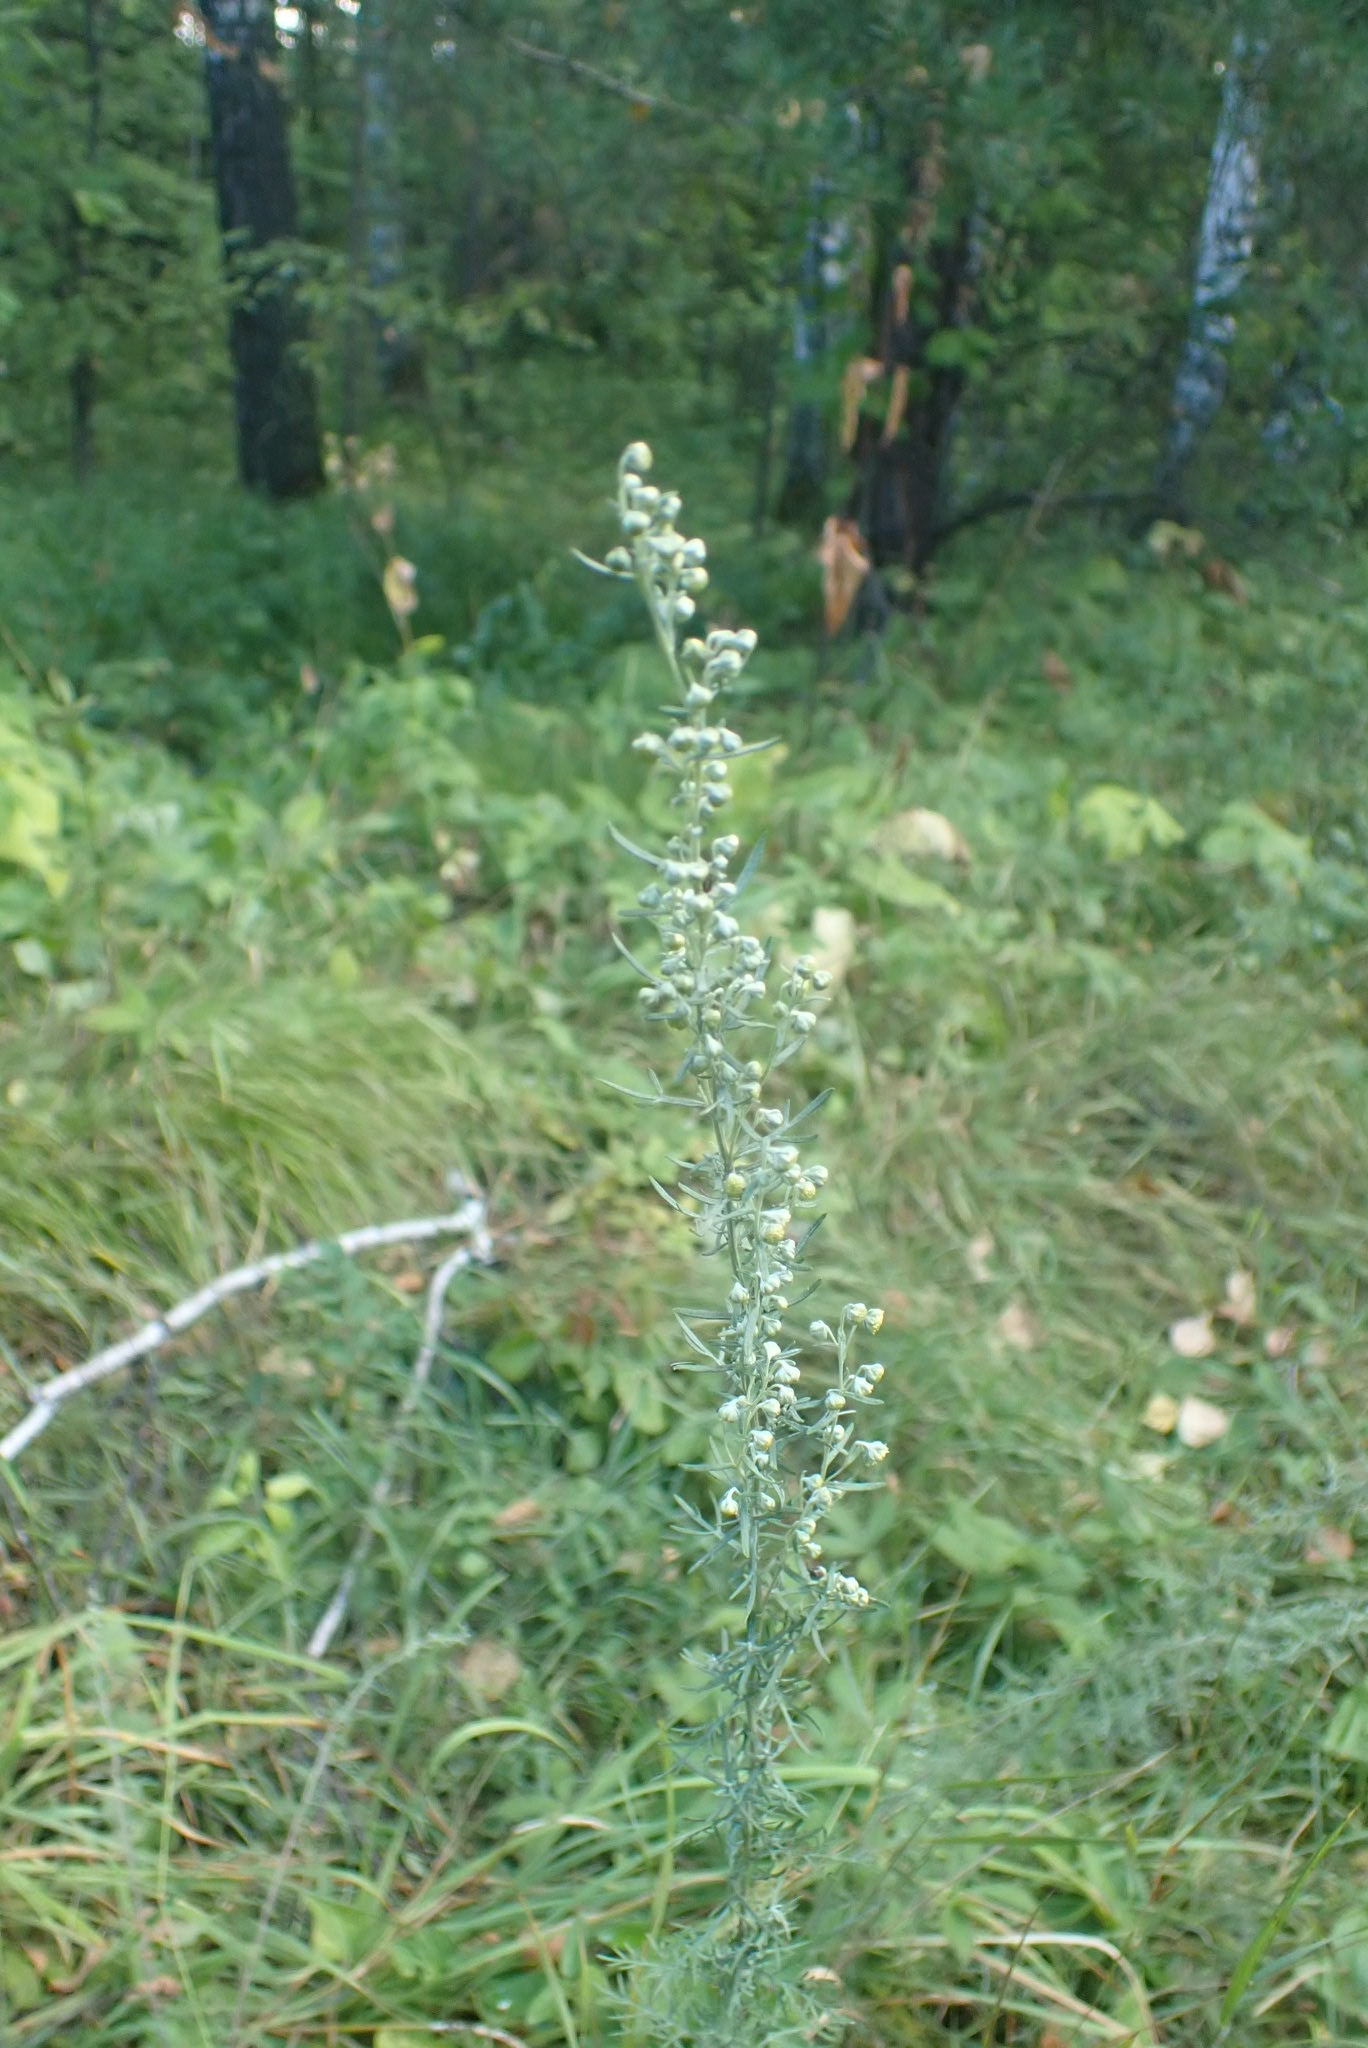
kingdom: Plantae
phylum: Tracheophyta
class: Magnoliopsida
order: Asterales
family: Asteraceae
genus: Artemisia
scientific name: Artemisia absinthium
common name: Wormwood
